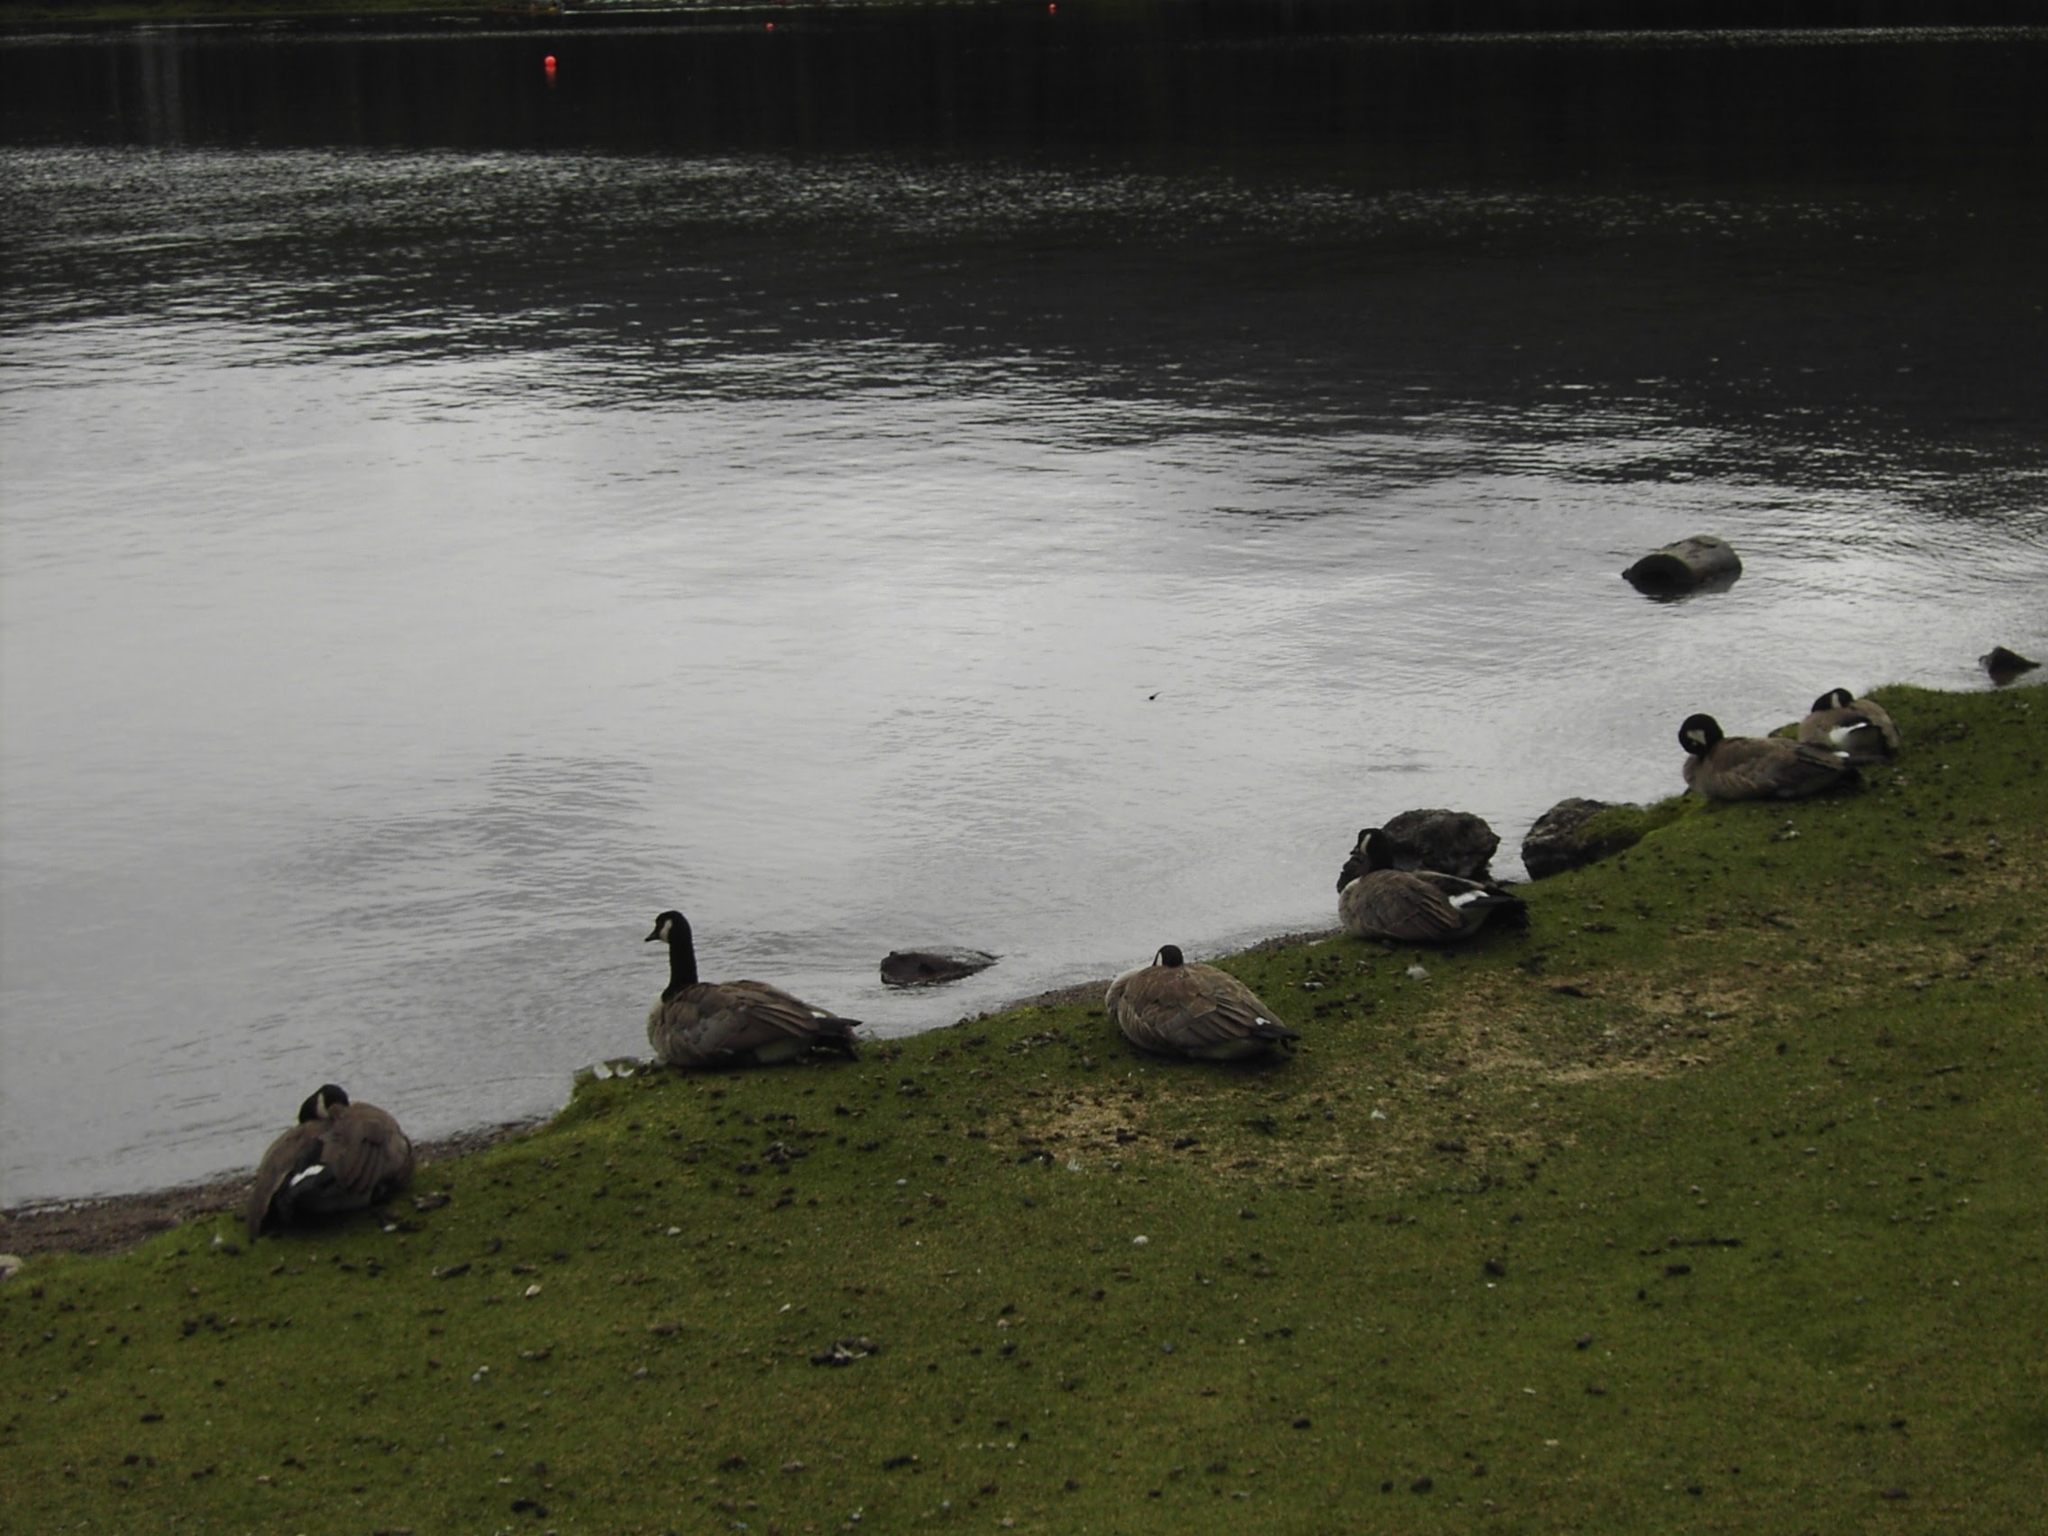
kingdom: Animalia
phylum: Chordata
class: Aves
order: Anseriformes
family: Anatidae
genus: Branta
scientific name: Branta canadensis
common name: Canada goose
